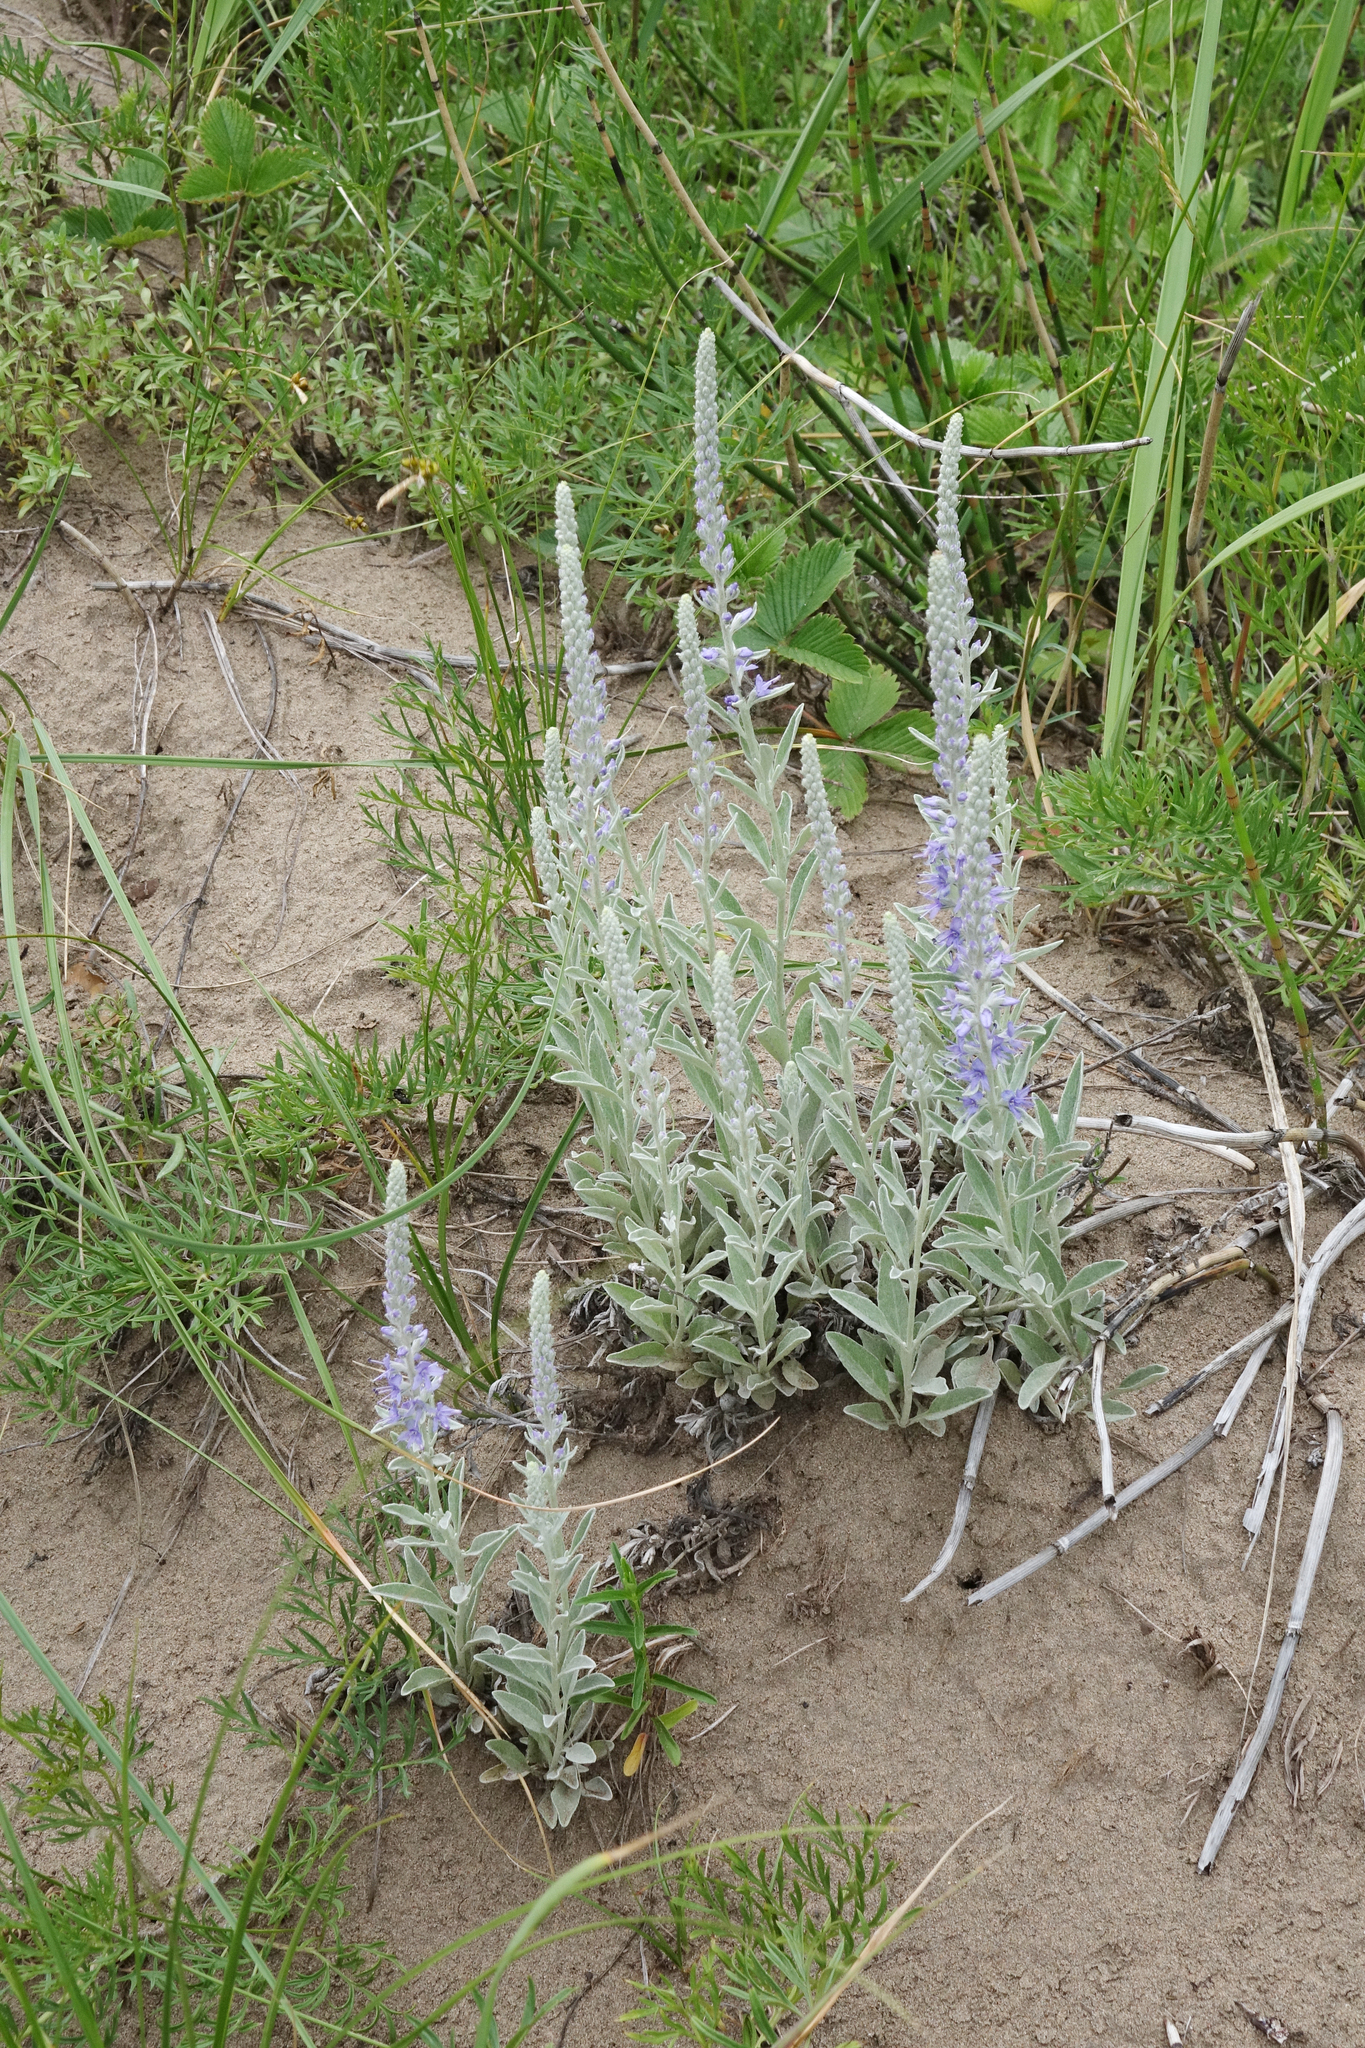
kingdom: Plantae
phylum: Tracheophyta
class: Magnoliopsida
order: Lamiales
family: Plantaginaceae
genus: Veronica
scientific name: Veronica incana
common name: Silver speedwell
